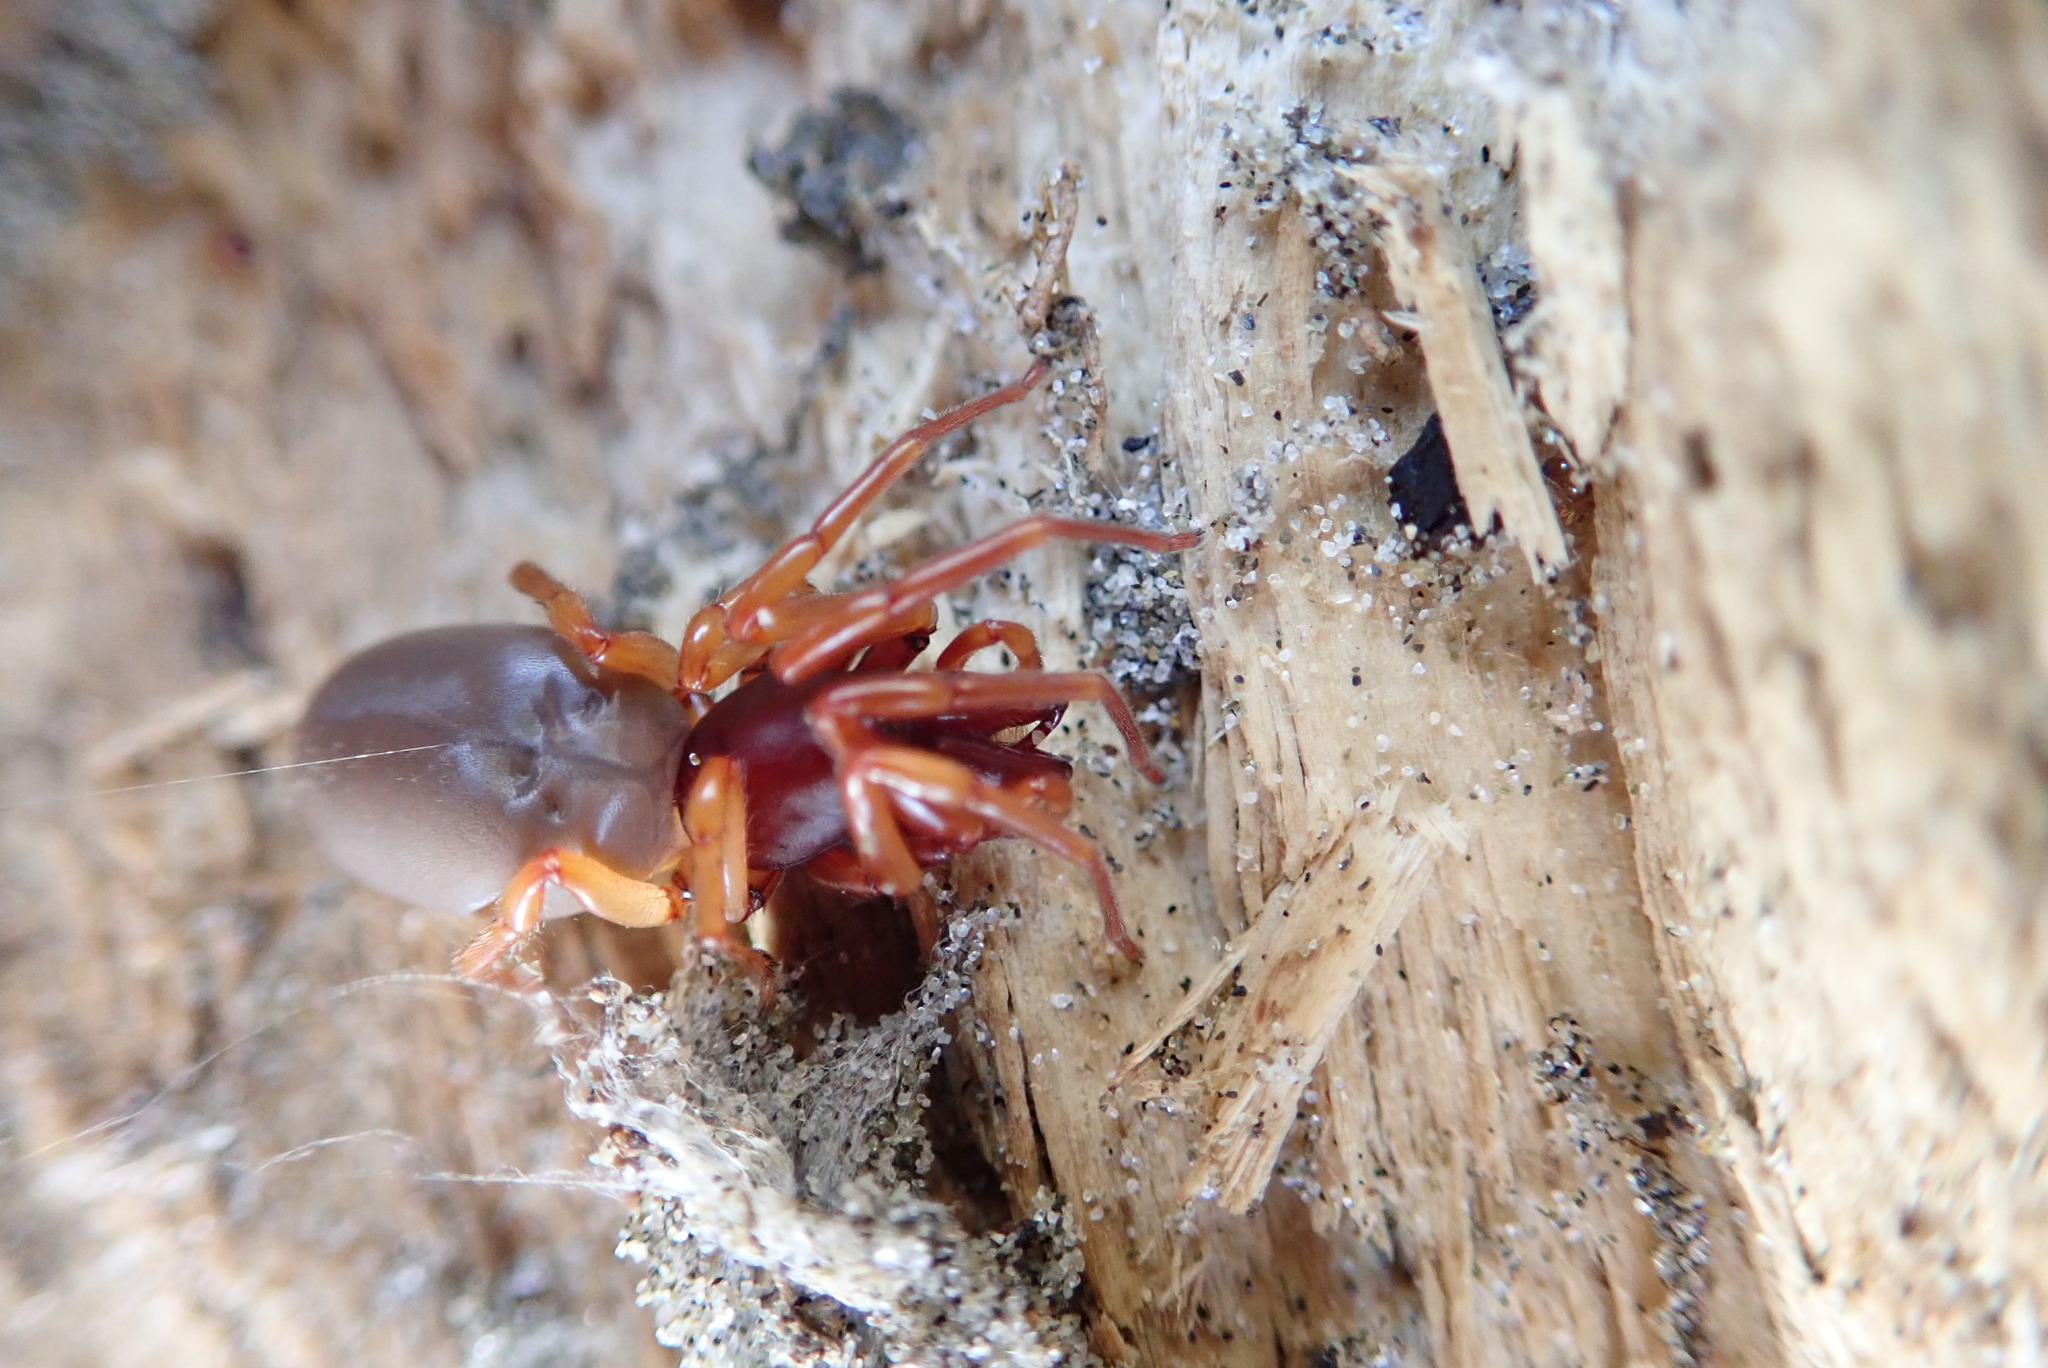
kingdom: Animalia
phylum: Arthropoda
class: Arachnida
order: Araneae
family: Dysderidae
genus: Dysdera
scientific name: Dysdera crocata
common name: Woodlouse spider
